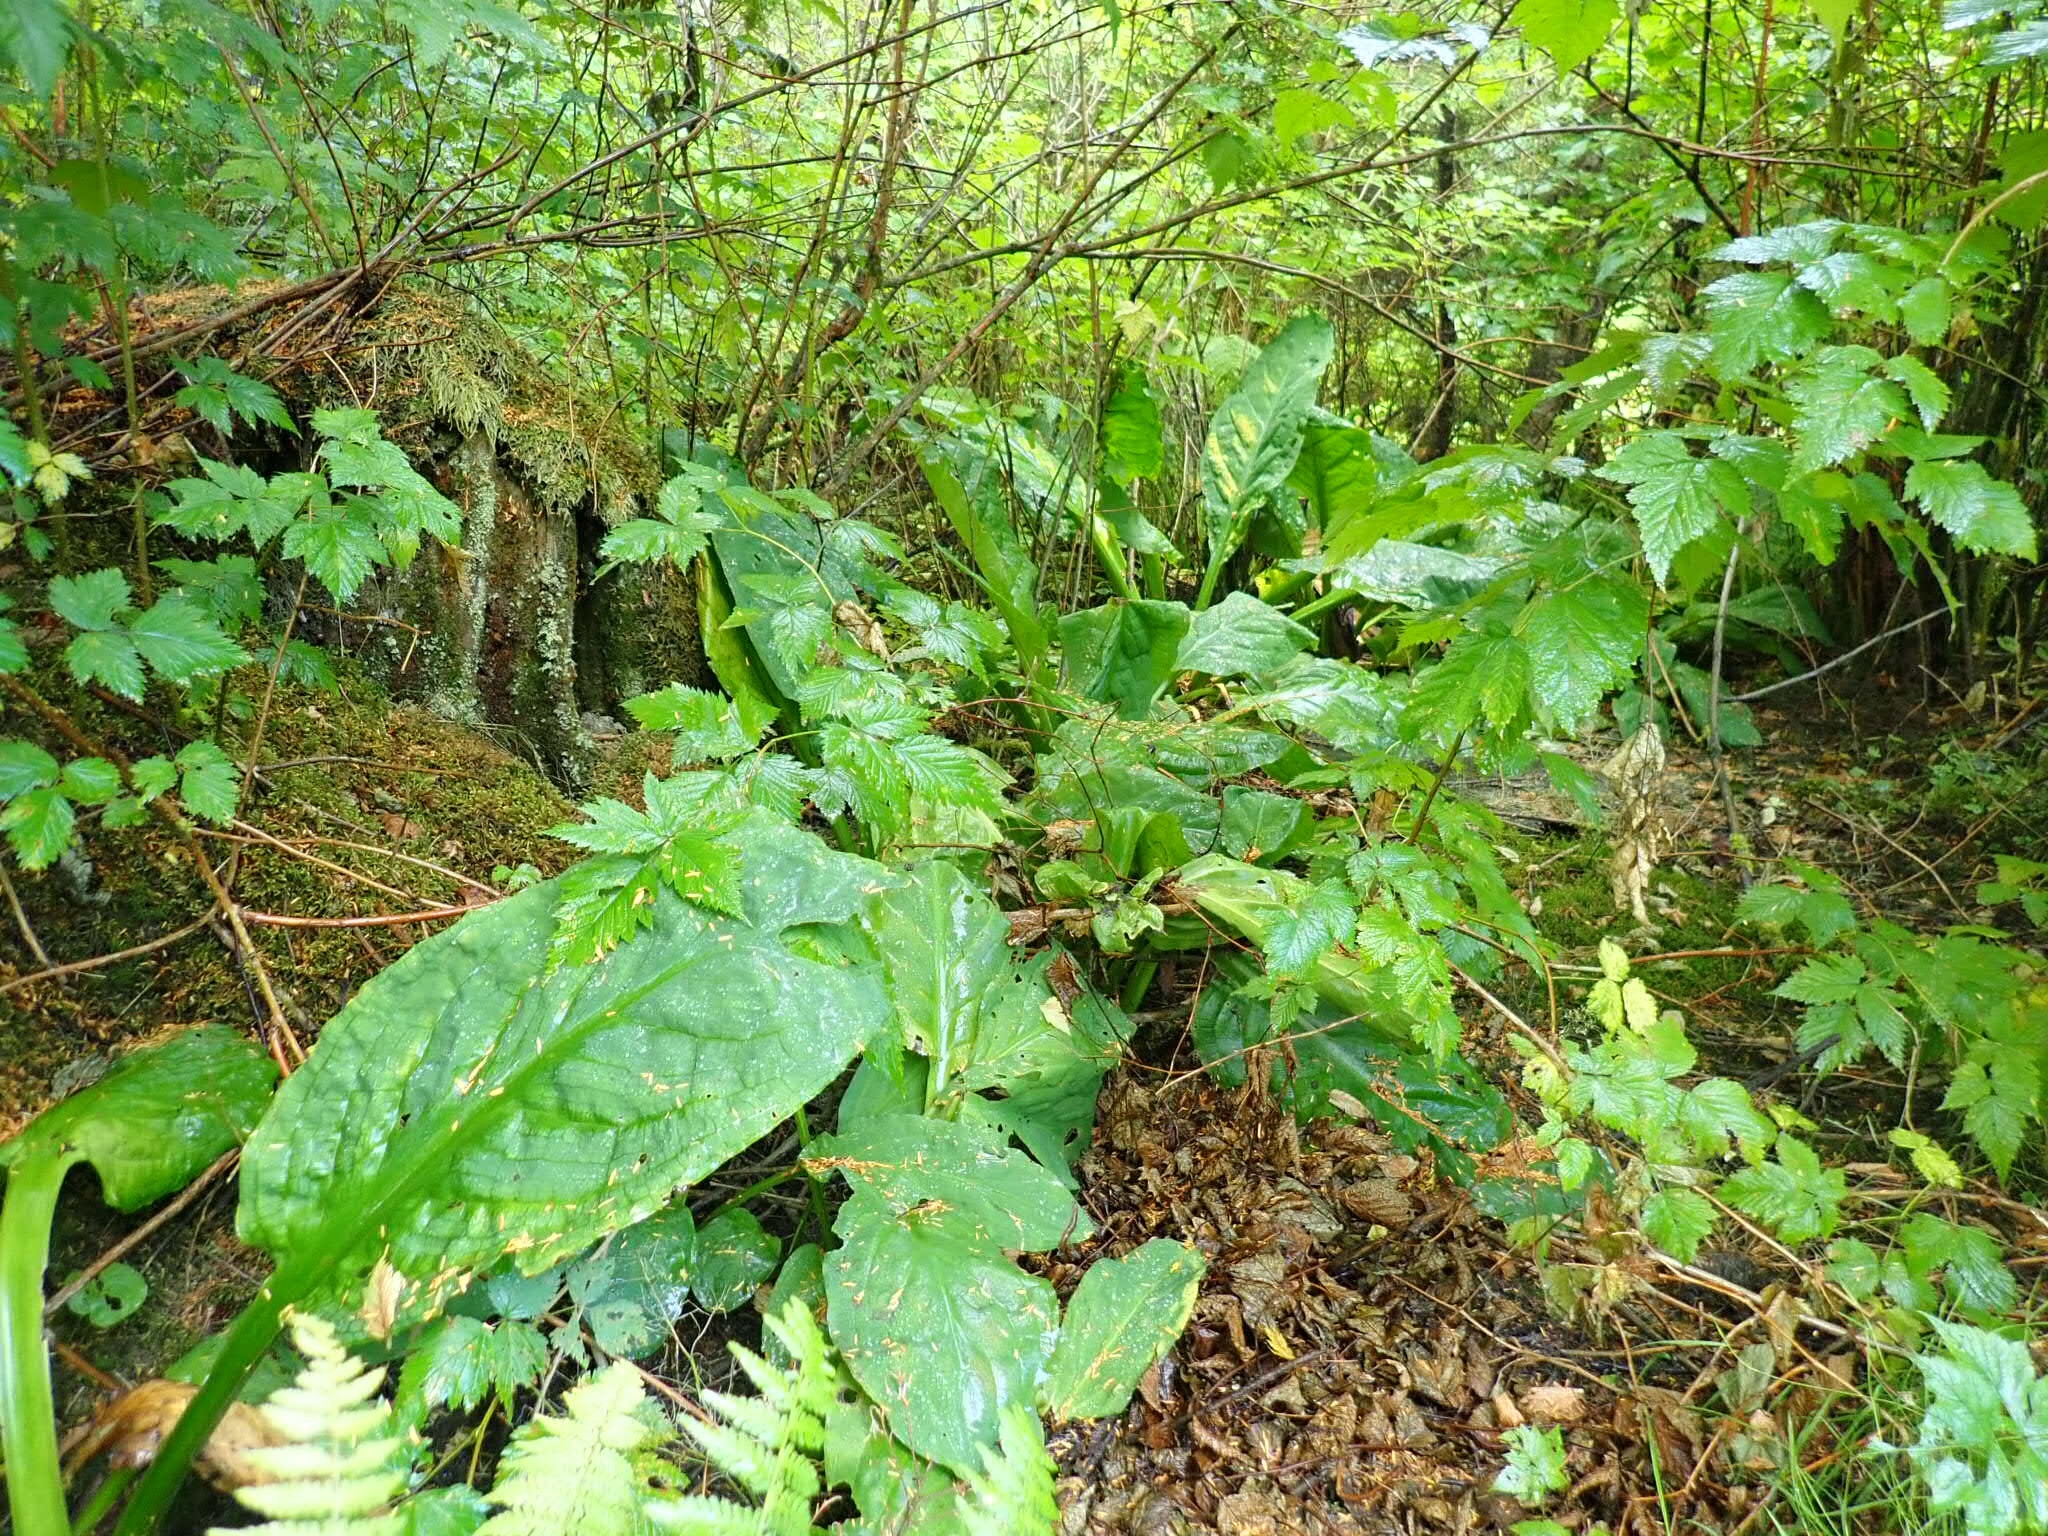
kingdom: Plantae
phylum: Tracheophyta
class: Liliopsida
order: Alismatales
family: Araceae
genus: Lysichiton
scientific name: Lysichiton americanus
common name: American skunk cabbage
